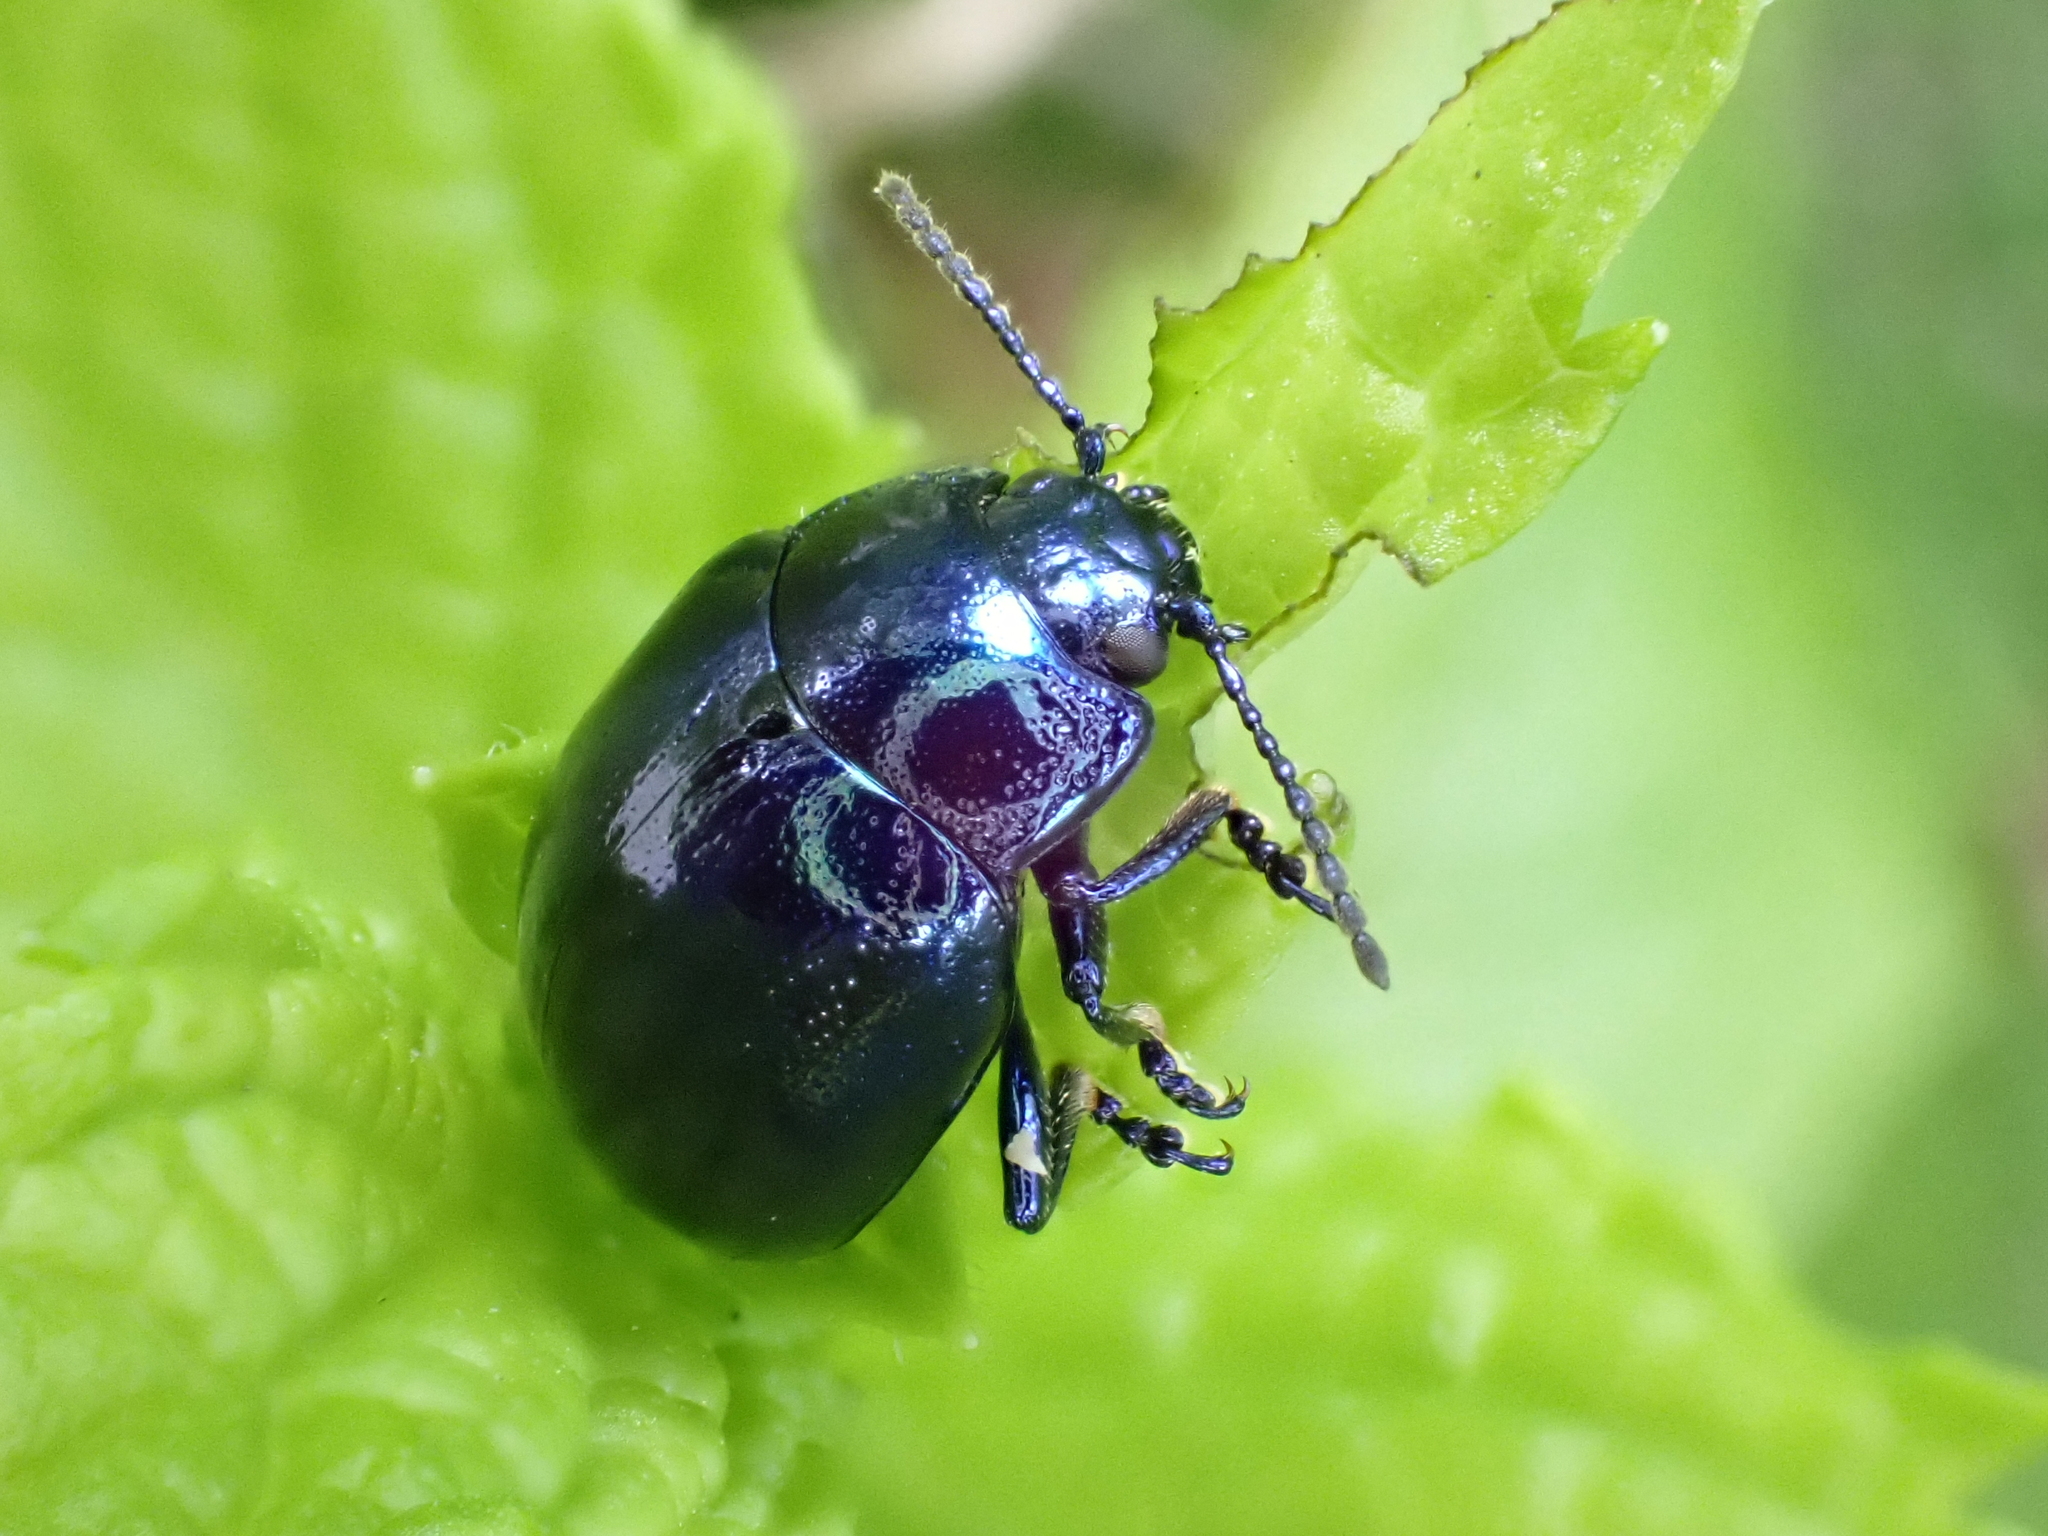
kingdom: Animalia
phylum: Arthropoda
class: Insecta
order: Coleoptera
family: Chrysomelidae
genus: Chrysolina
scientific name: Chrysolina coerulans
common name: Blue mint beetle
